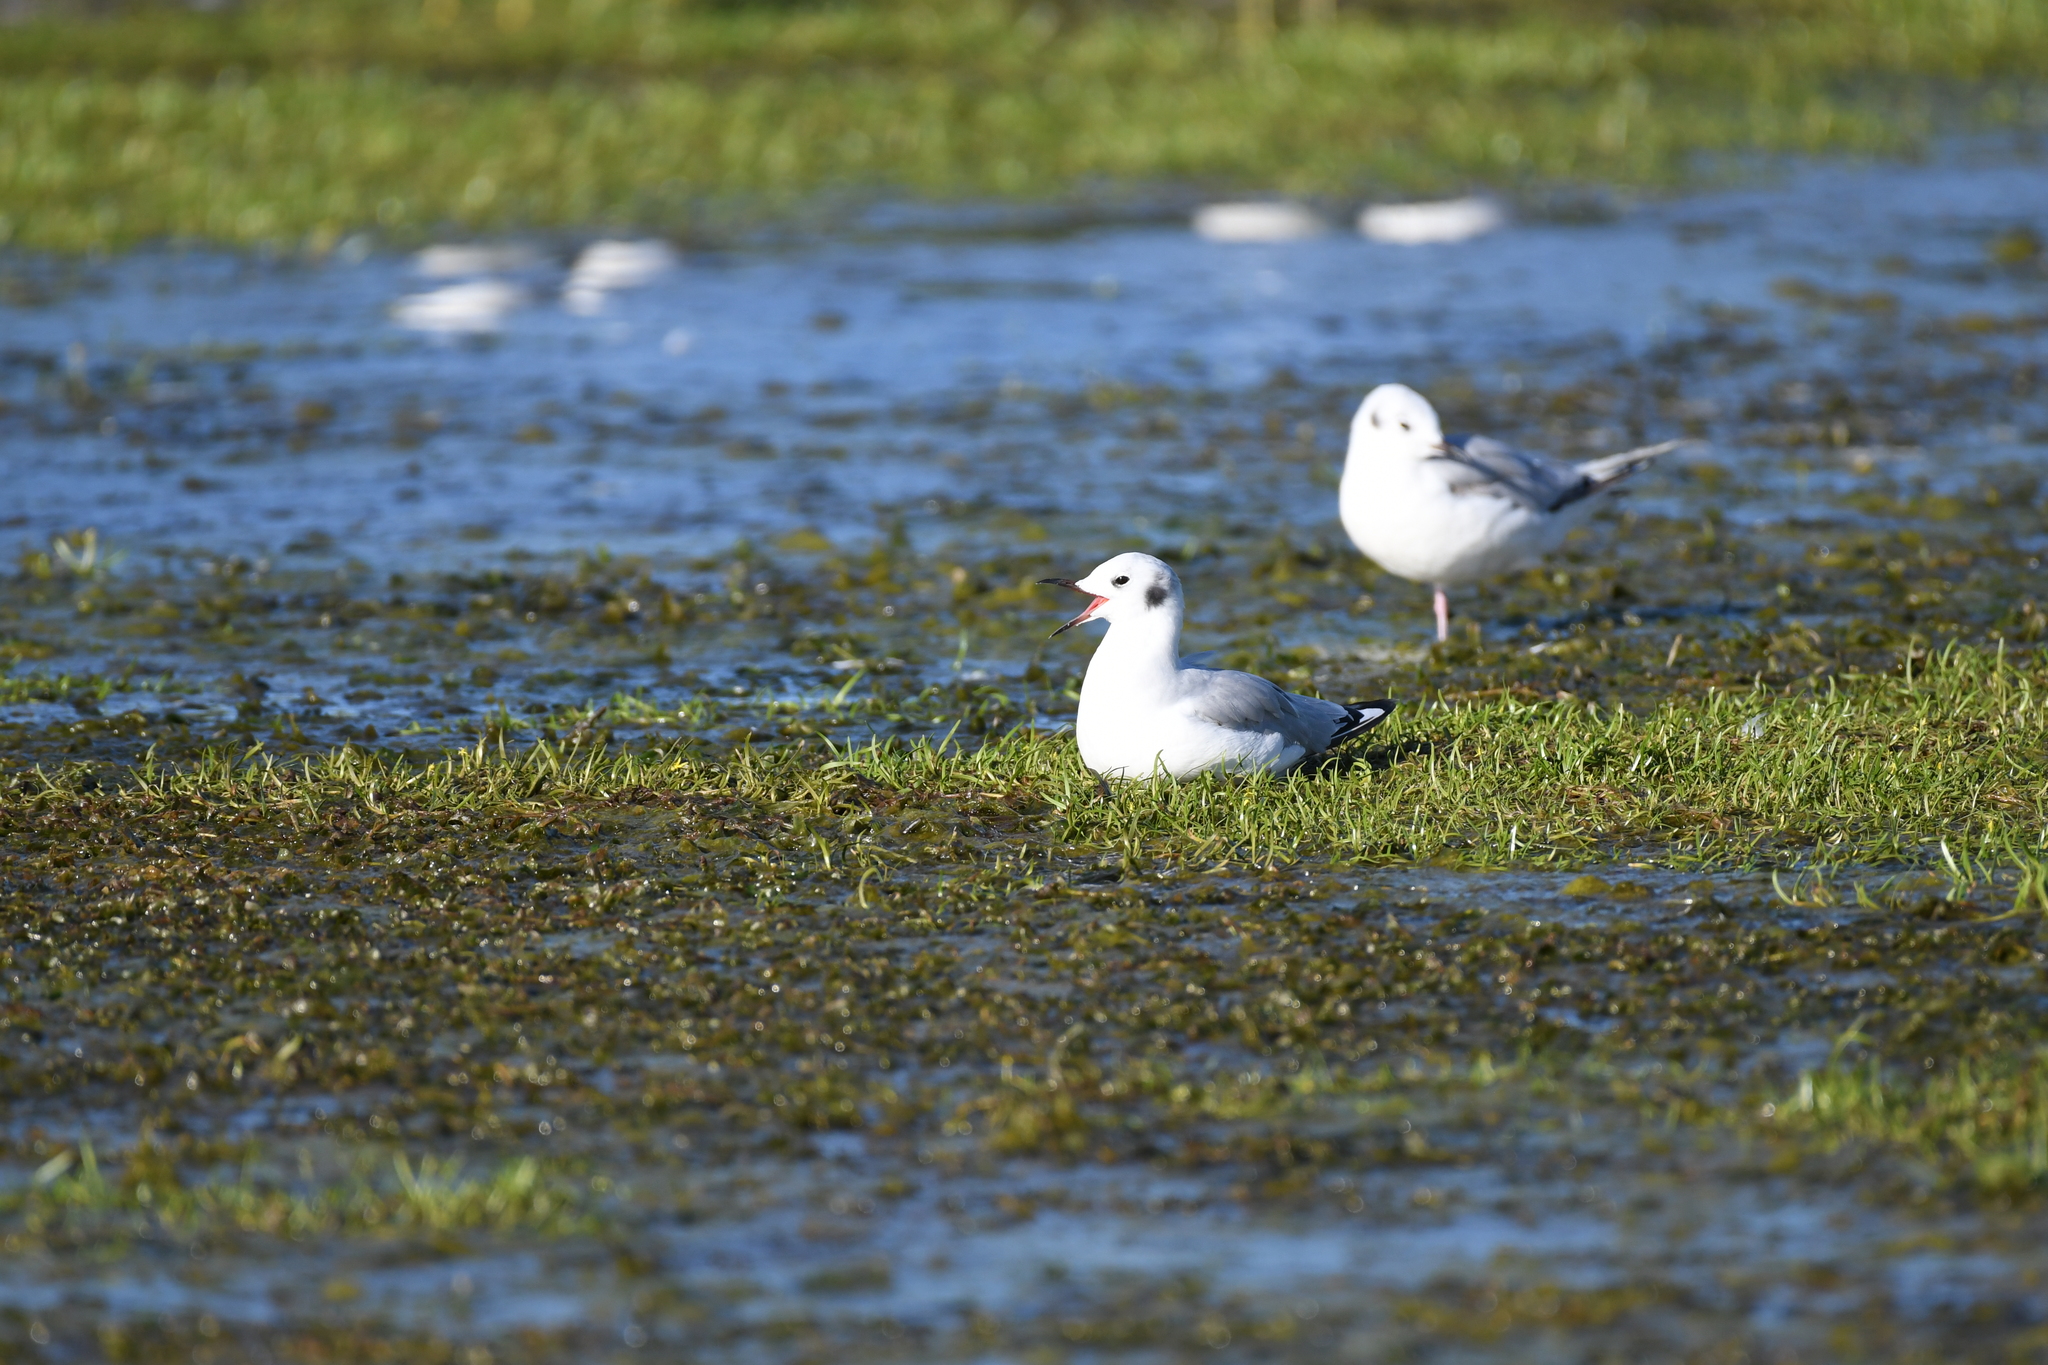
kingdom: Animalia
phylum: Chordata
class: Aves
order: Charadriiformes
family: Laridae
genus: Chroicocephalus
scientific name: Chroicocephalus philadelphia
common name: Bonaparte's gull
